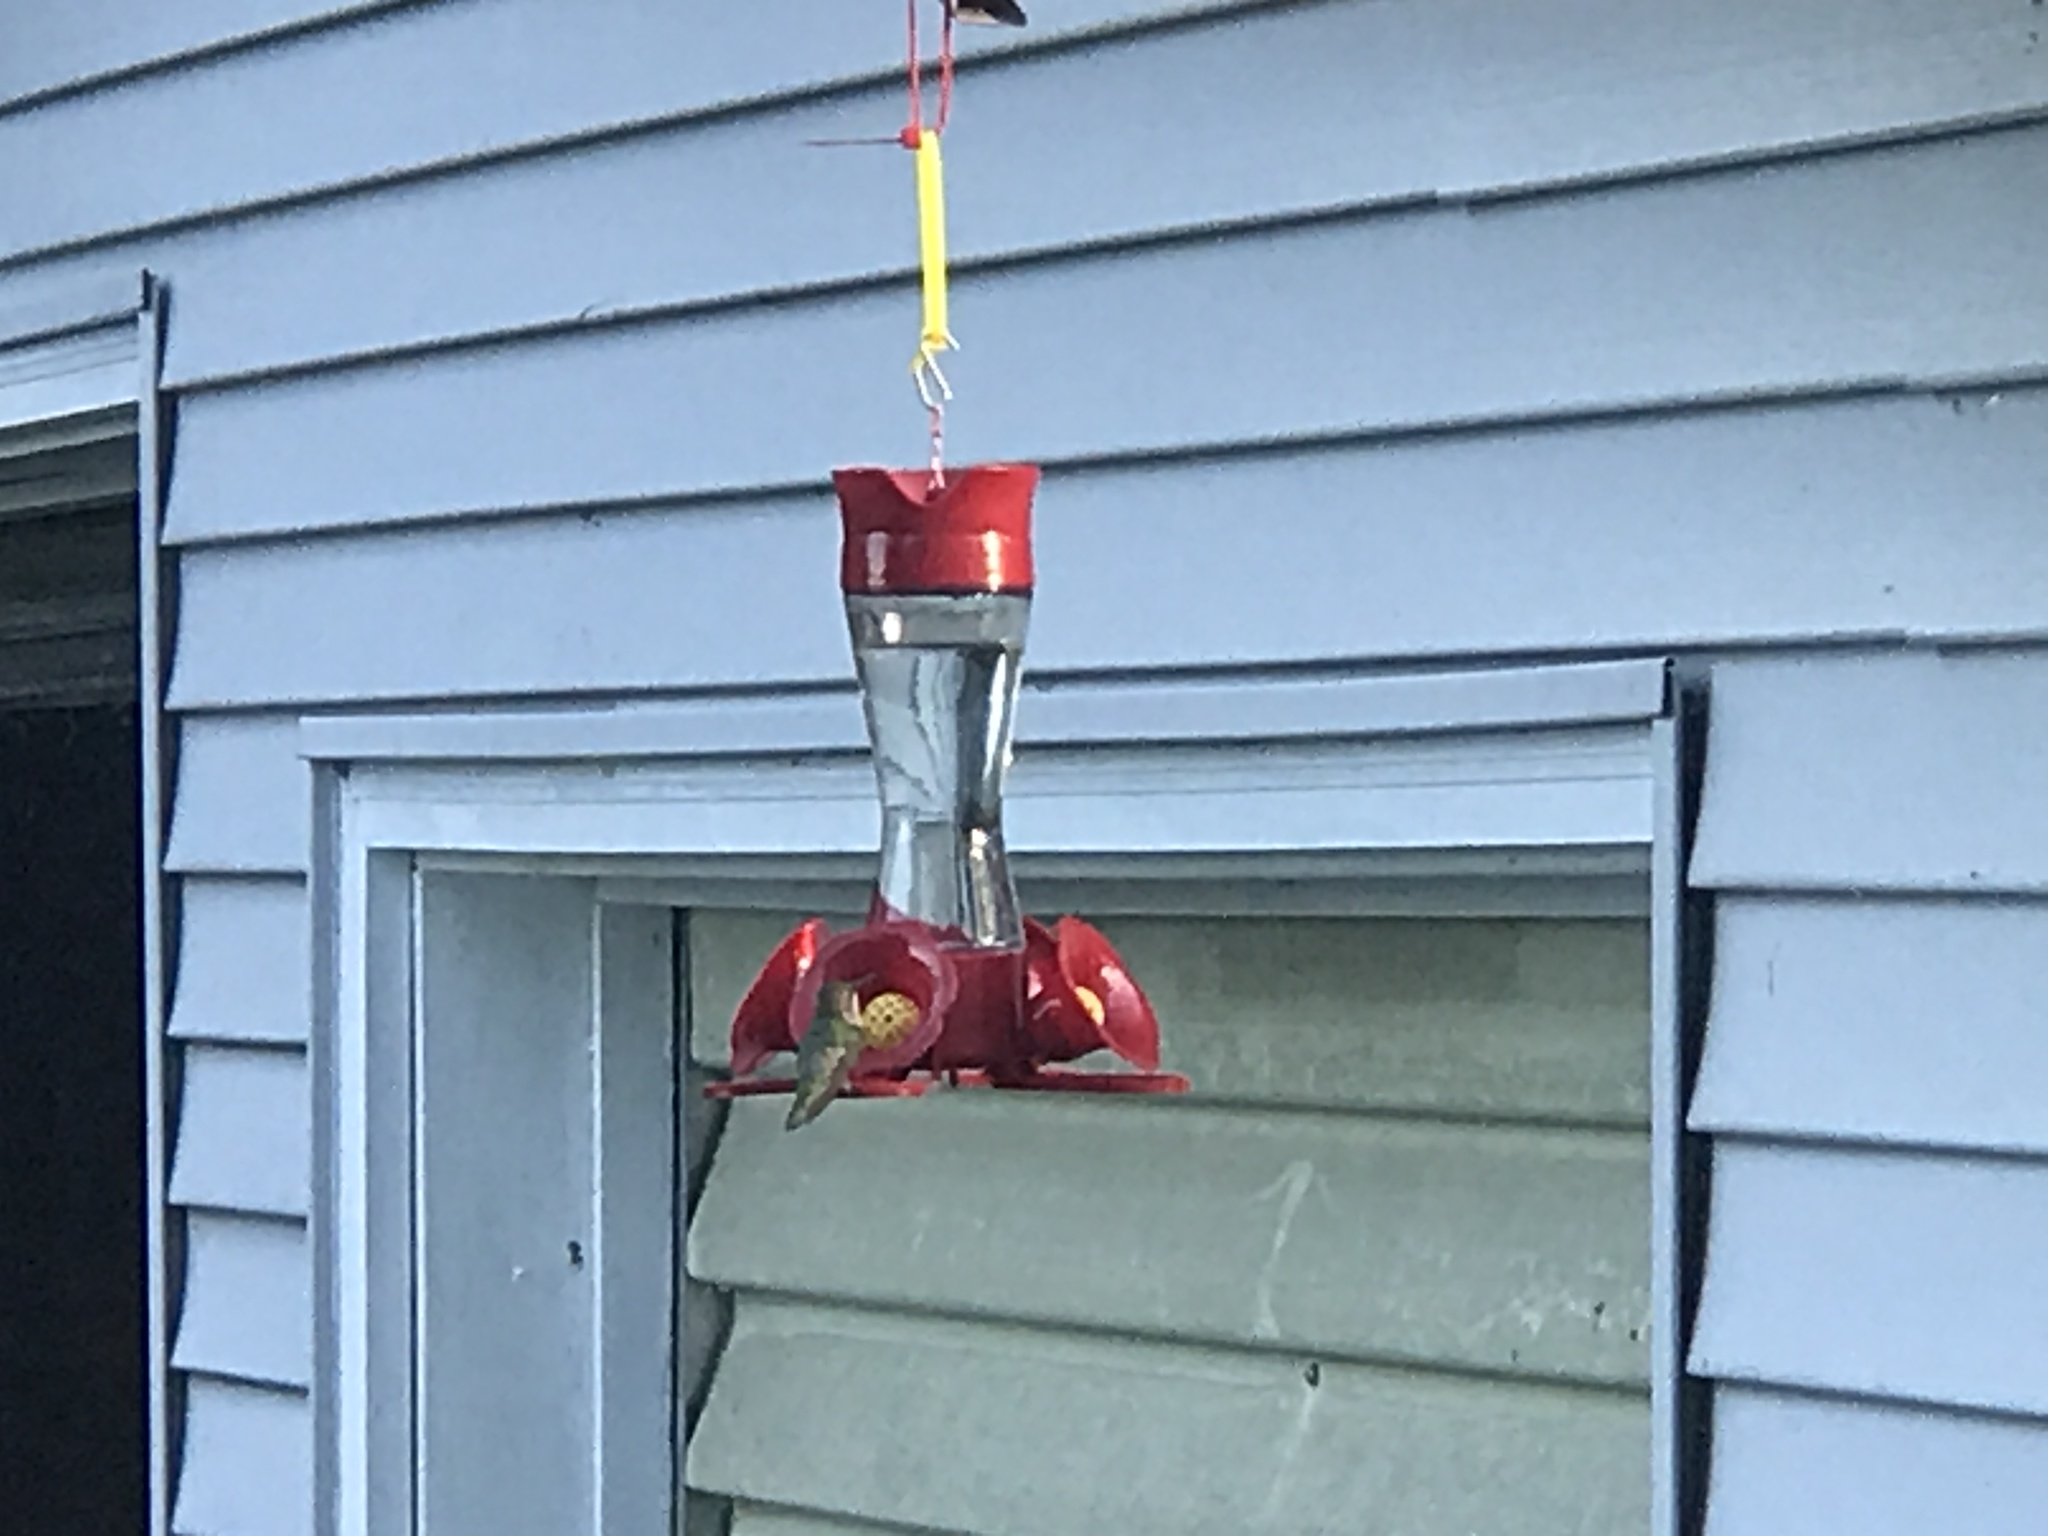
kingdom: Animalia
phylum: Chordata
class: Aves
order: Apodiformes
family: Trochilidae
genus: Archilochus
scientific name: Archilochus colubris
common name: Ruby-throated hummingbird
